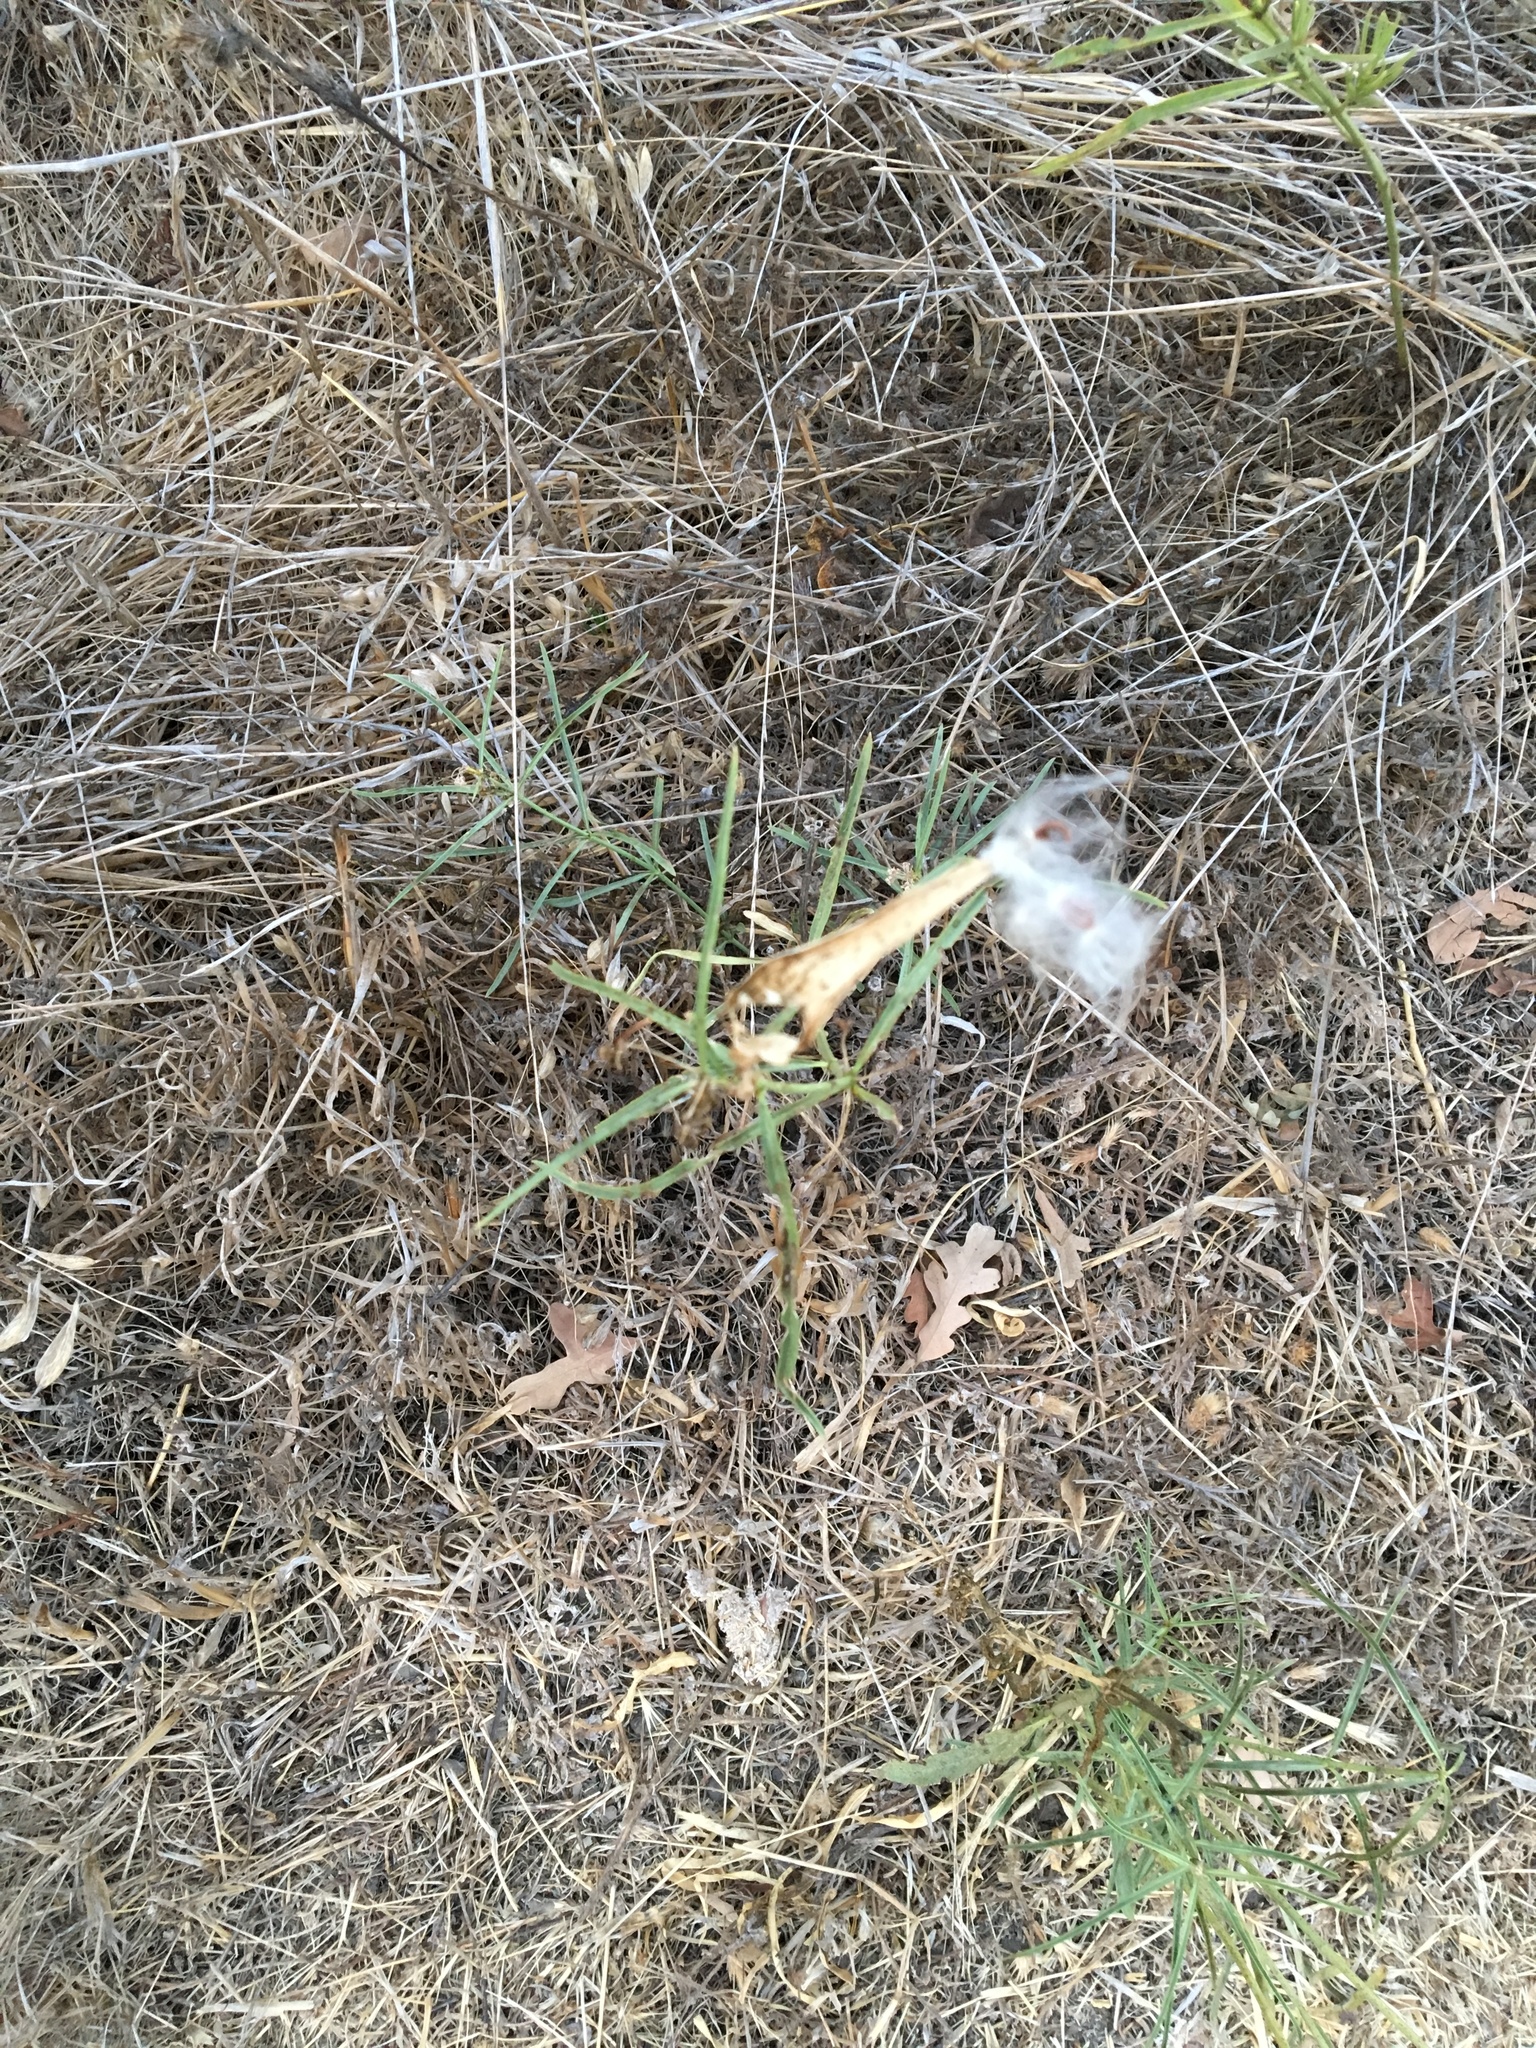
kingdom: Plantae
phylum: Tracheophyta
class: Magnoliopsida
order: Gentianales
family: Apocynaceae
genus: Asclepias
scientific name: Asclepias fascicularis
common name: Mexican milkweed
